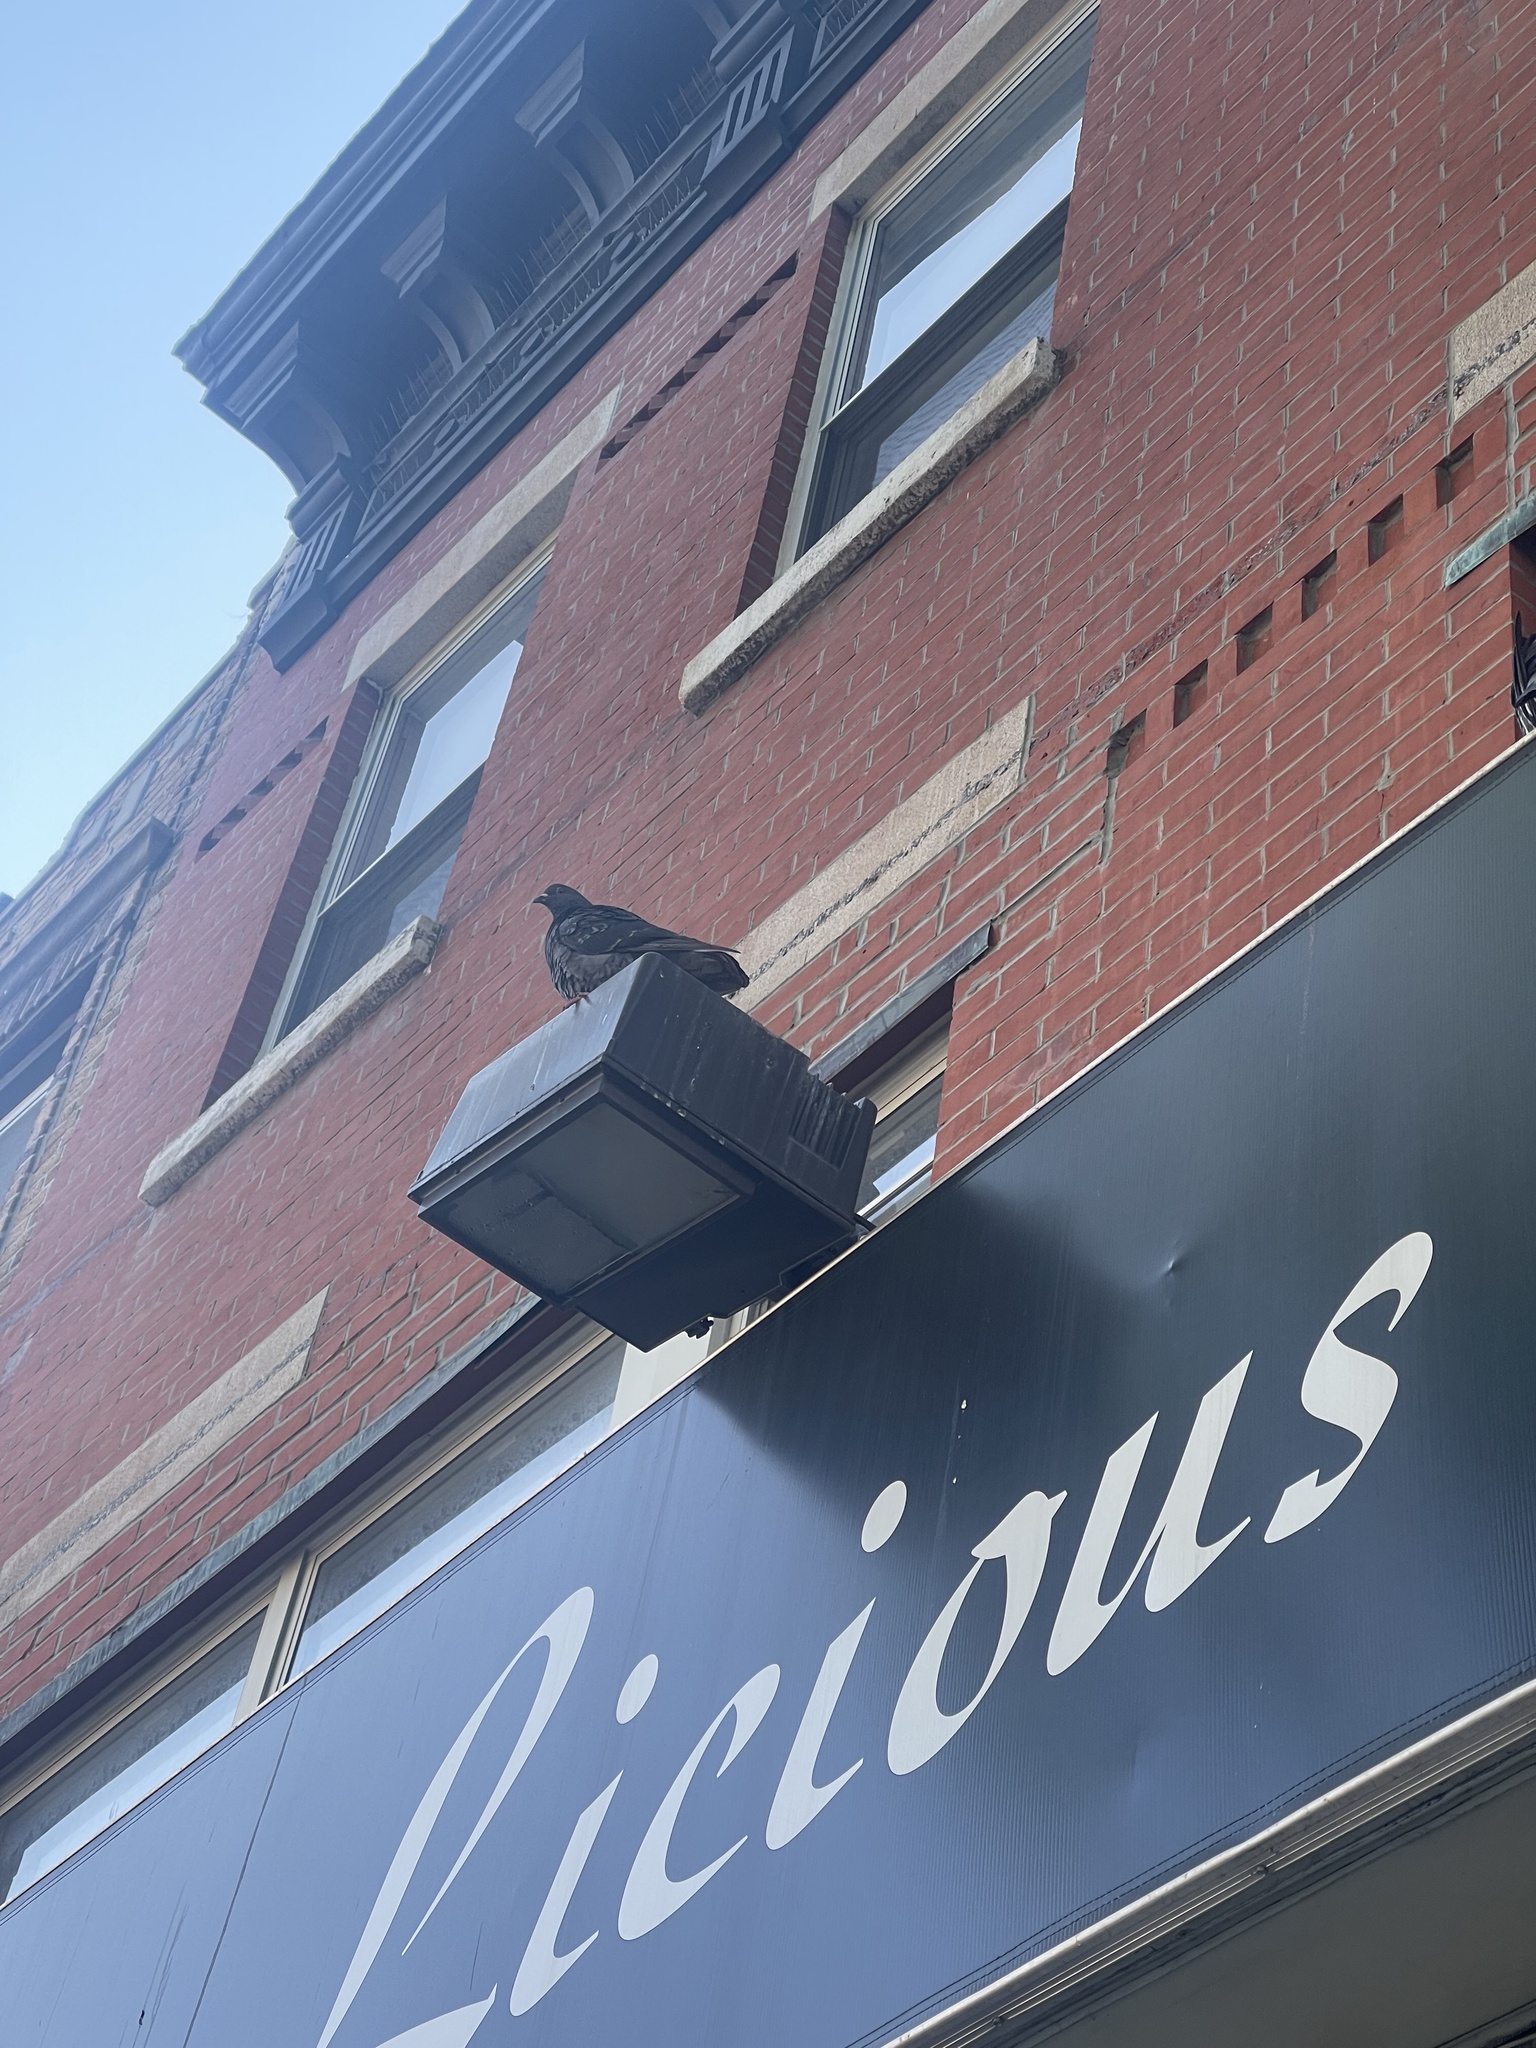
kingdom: Animalia
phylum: Chordata
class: Aves
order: Columbiformes
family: Columbidae
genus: Columba
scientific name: Columba livia
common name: Rock pigeon
